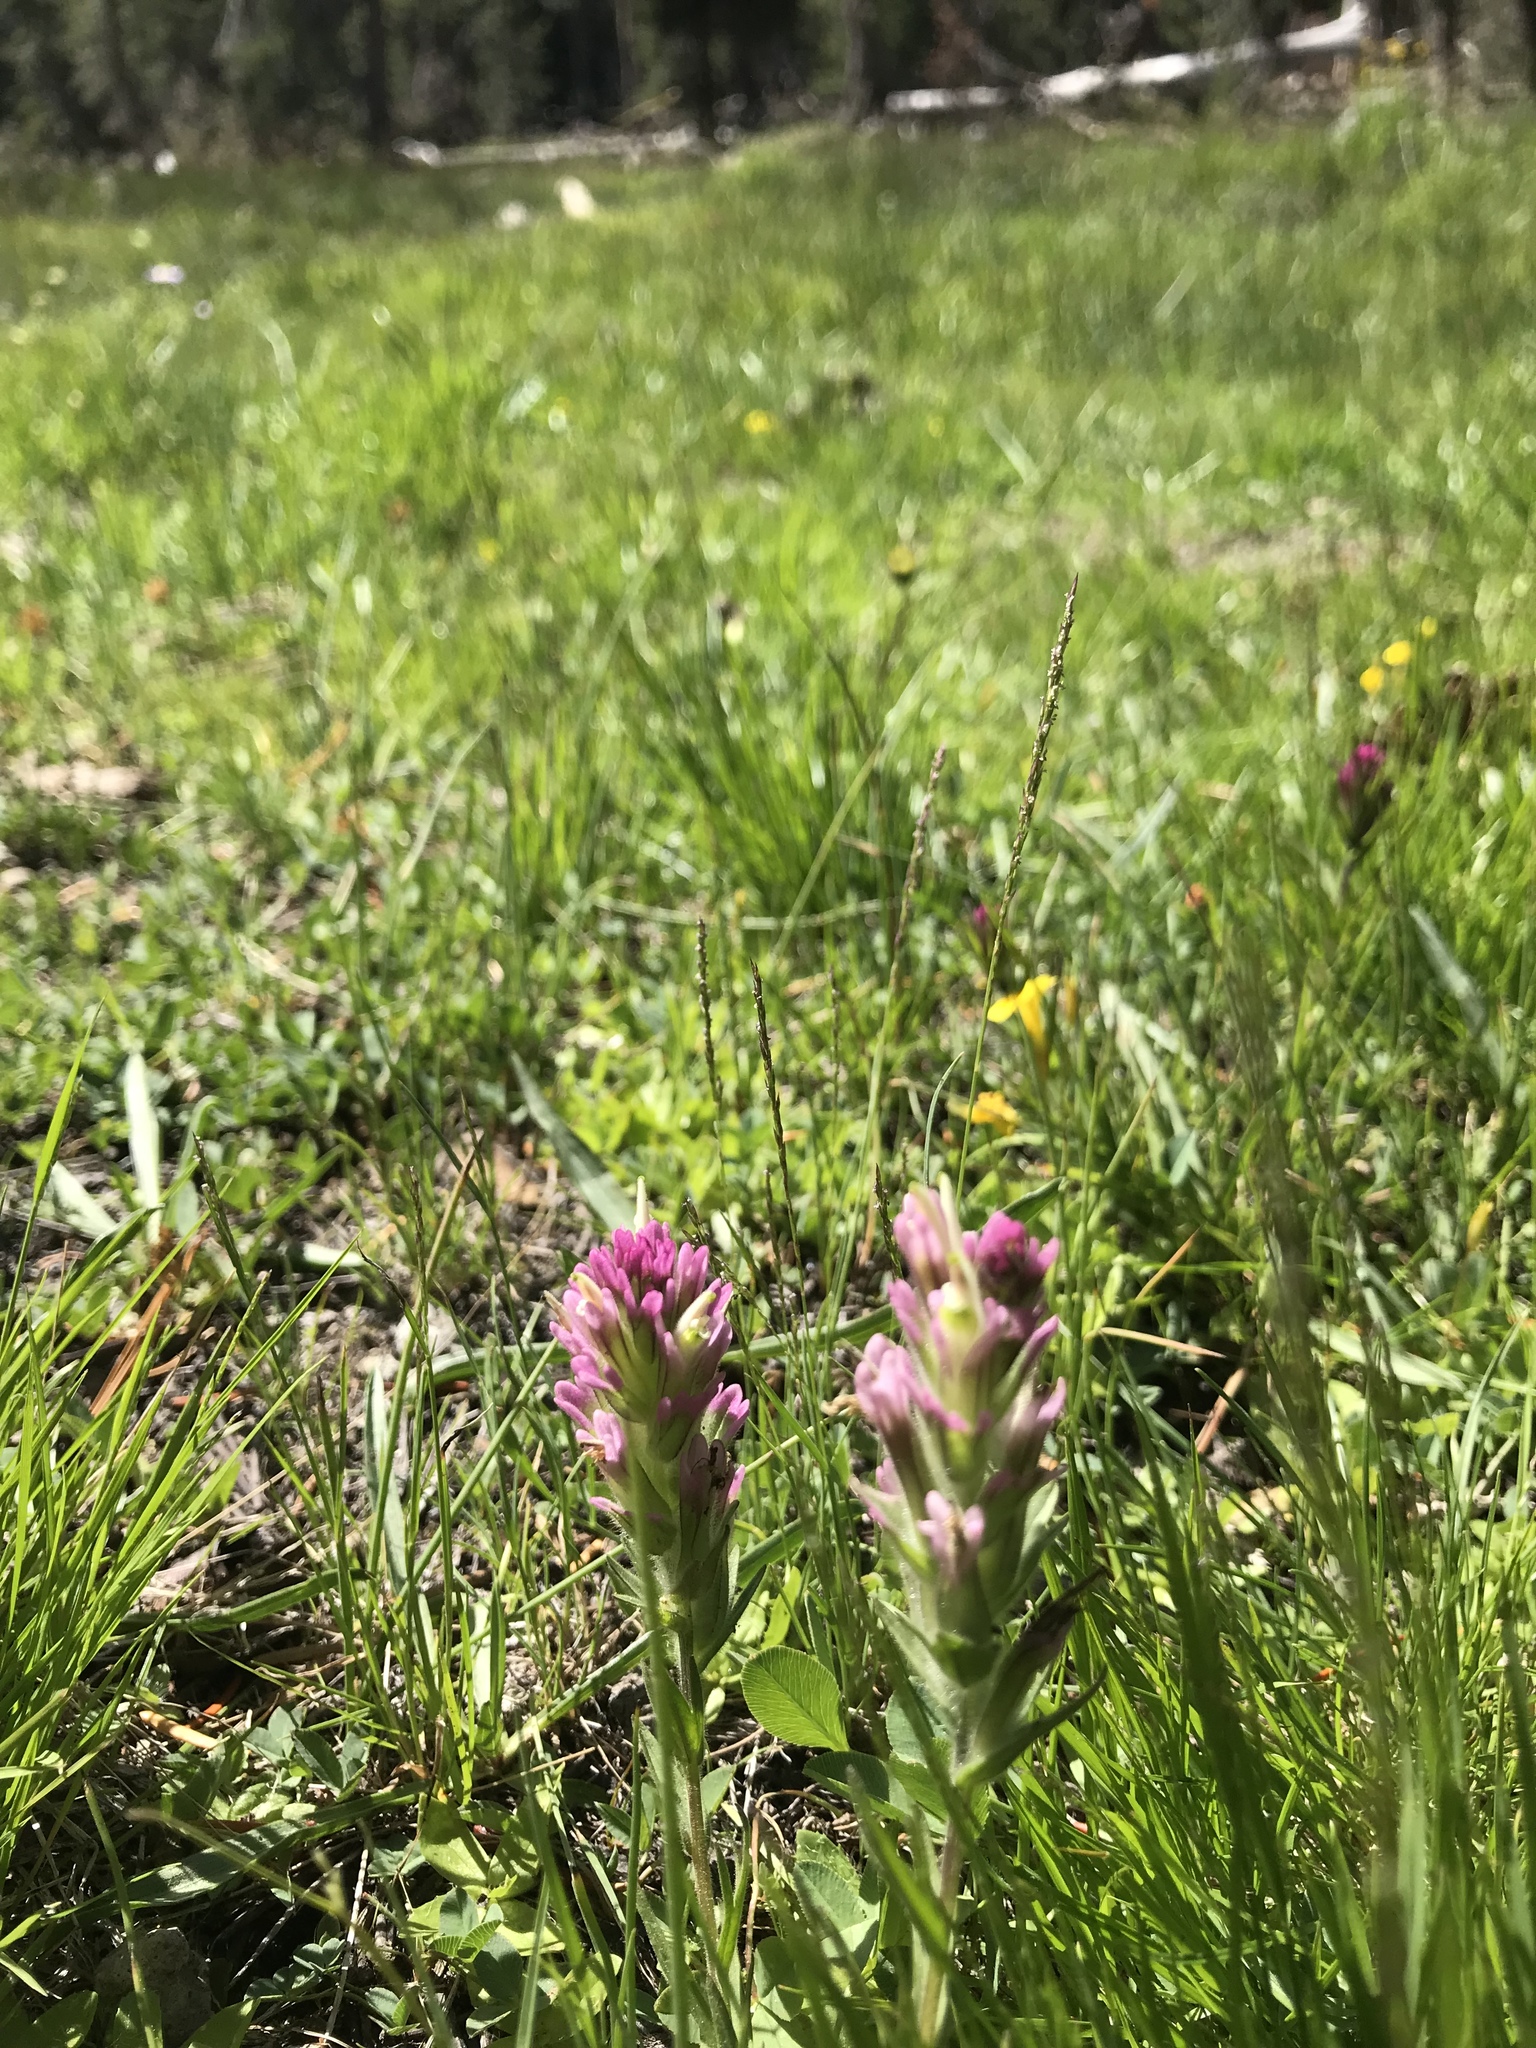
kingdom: Plantae
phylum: Tracheophyta
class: Magnoliopsida
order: Lamiales
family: Orobanchaceae
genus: Castilleja
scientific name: Castilleja lassenensis
